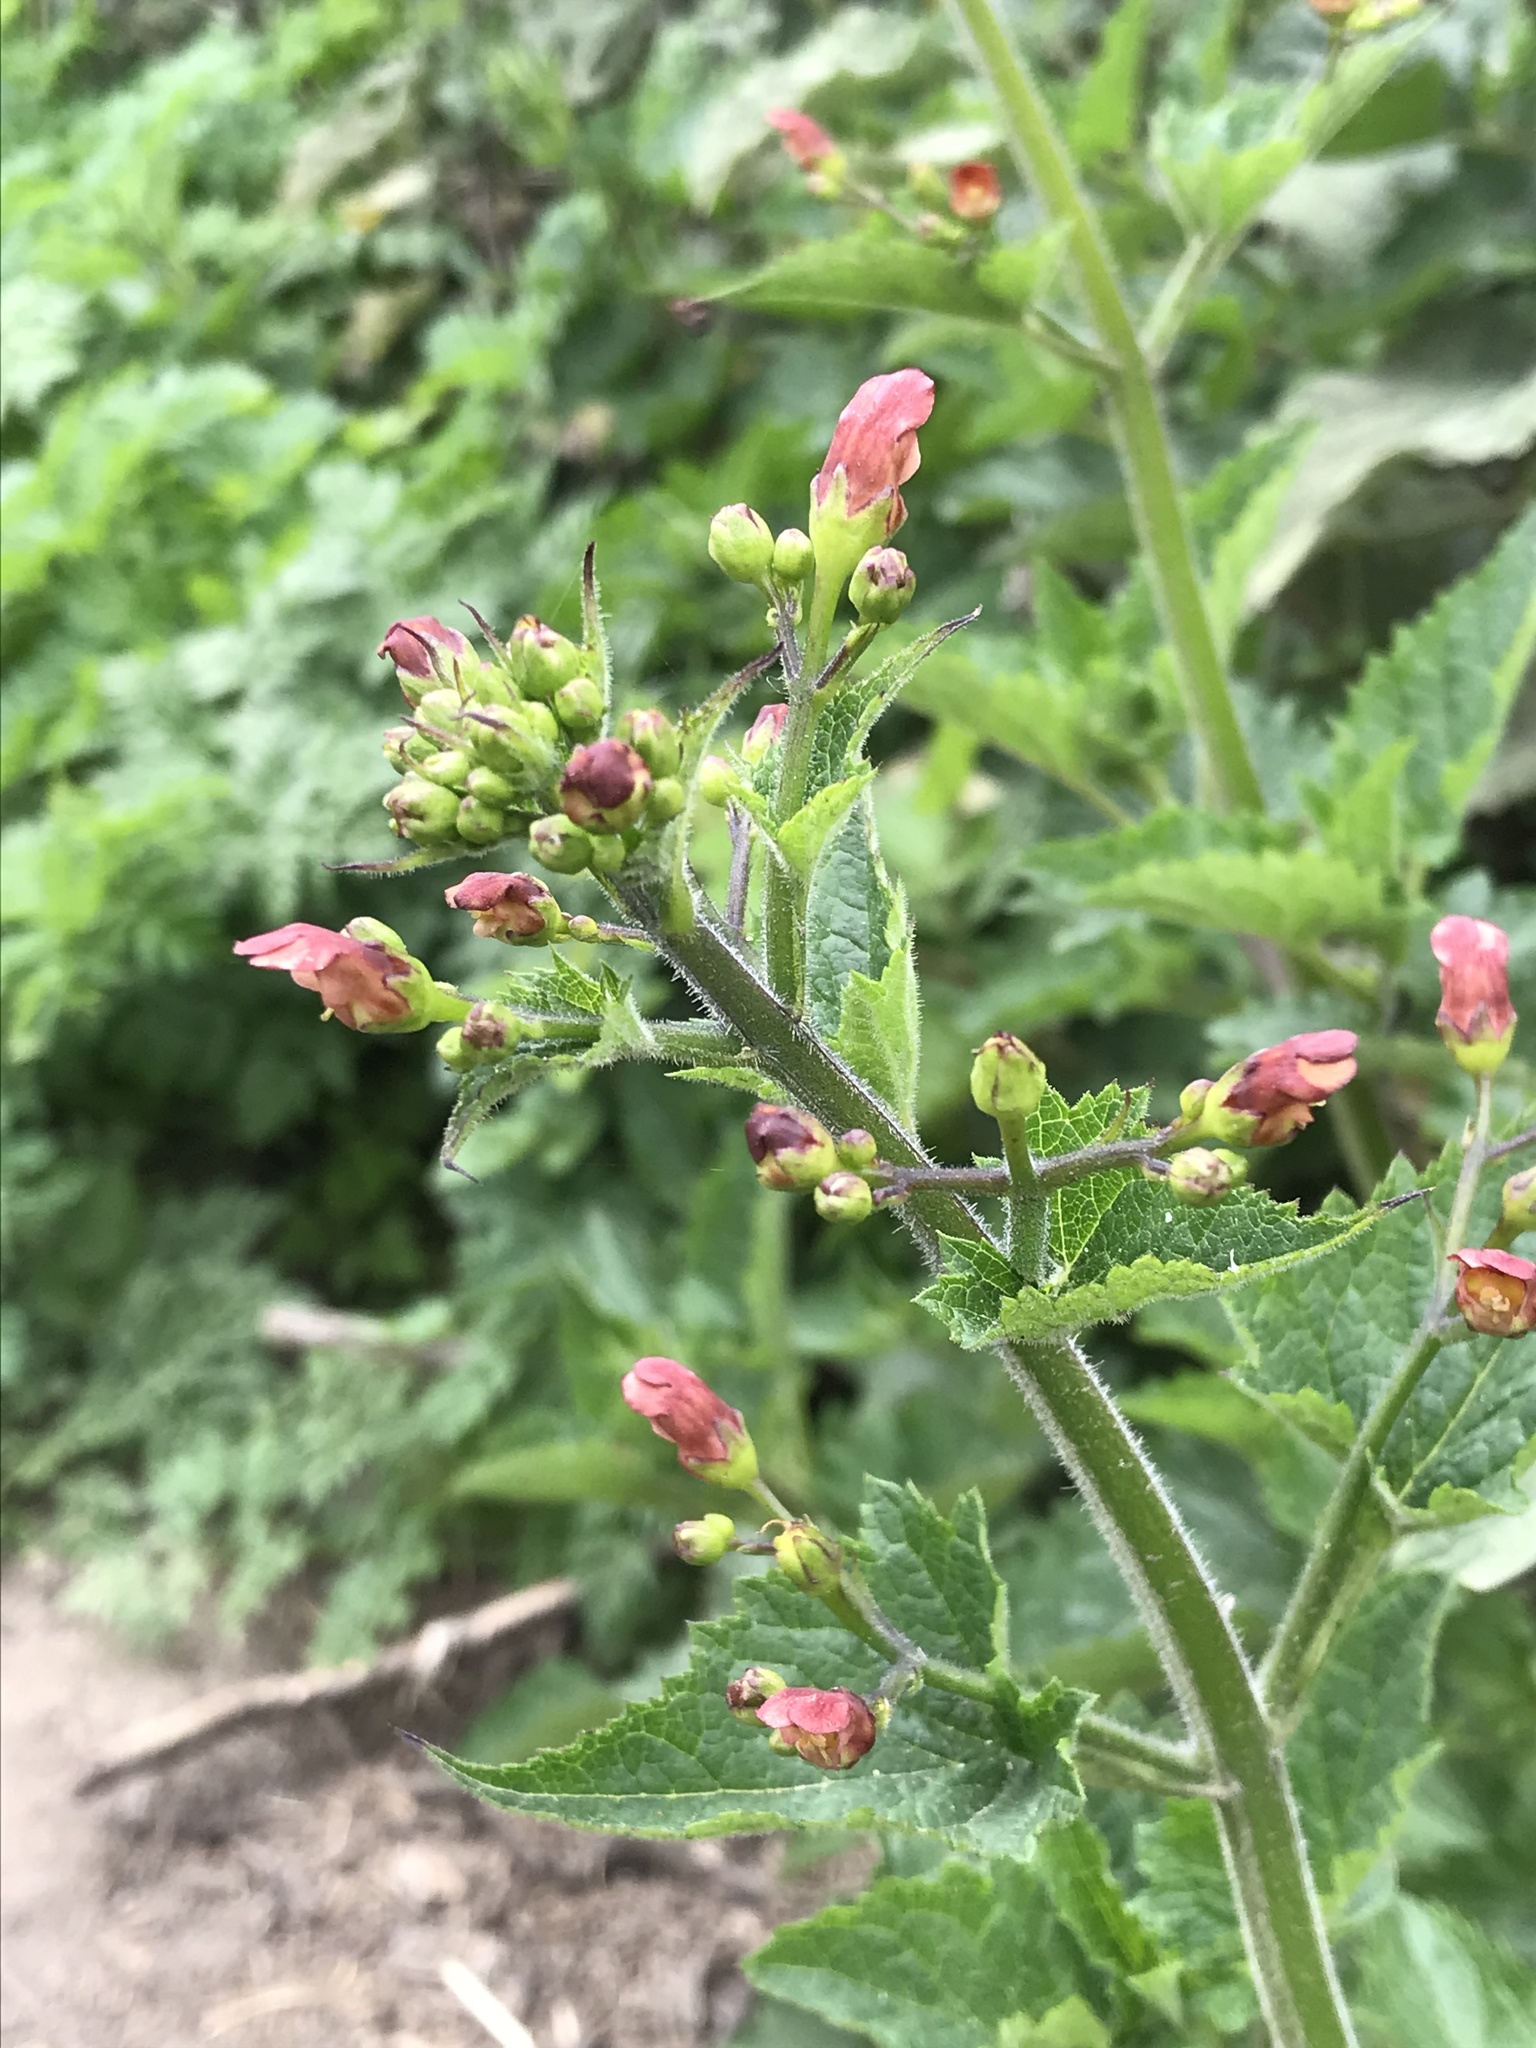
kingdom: Plantae
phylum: Tracheophyta
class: Magnoliopsida
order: Lamiales
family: Scrophulariaceae
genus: Scrophularia
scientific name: Scrophularia californica
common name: California figwort
